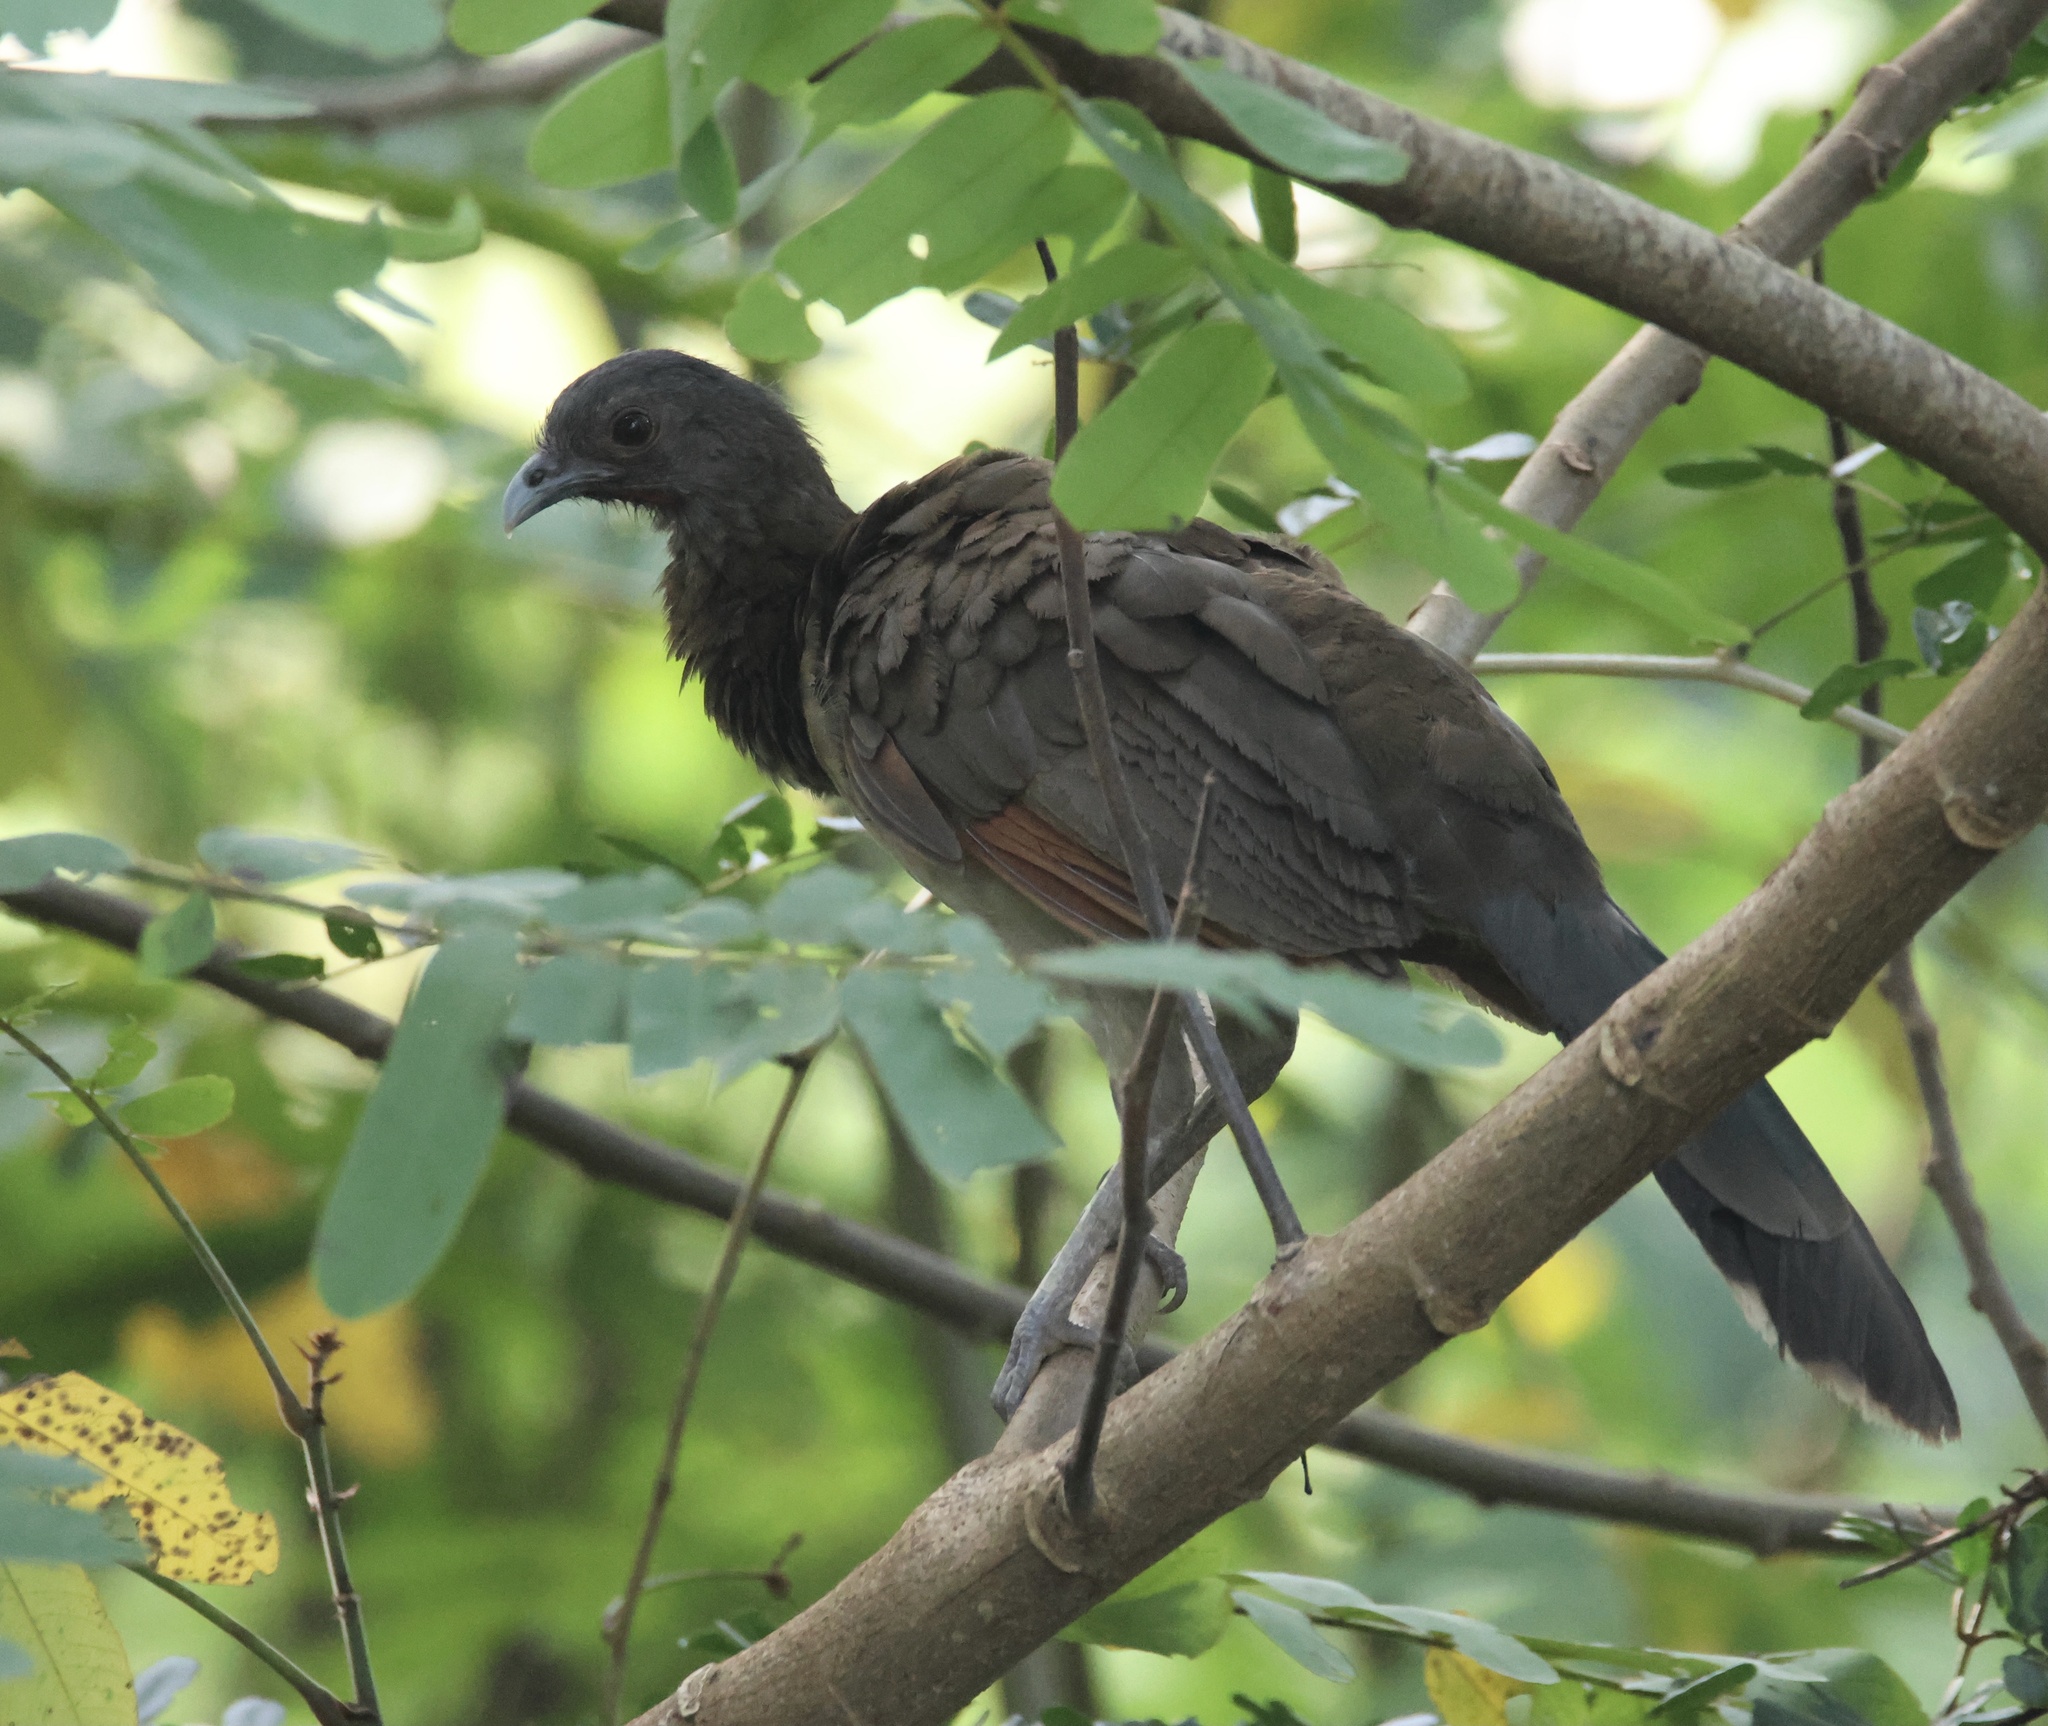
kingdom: Animalia
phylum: Chordata
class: Aves
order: Galliformes
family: Cracidae
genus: Ortalis
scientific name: Ortalis cinereiceps
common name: Grey-headed chachalaca
